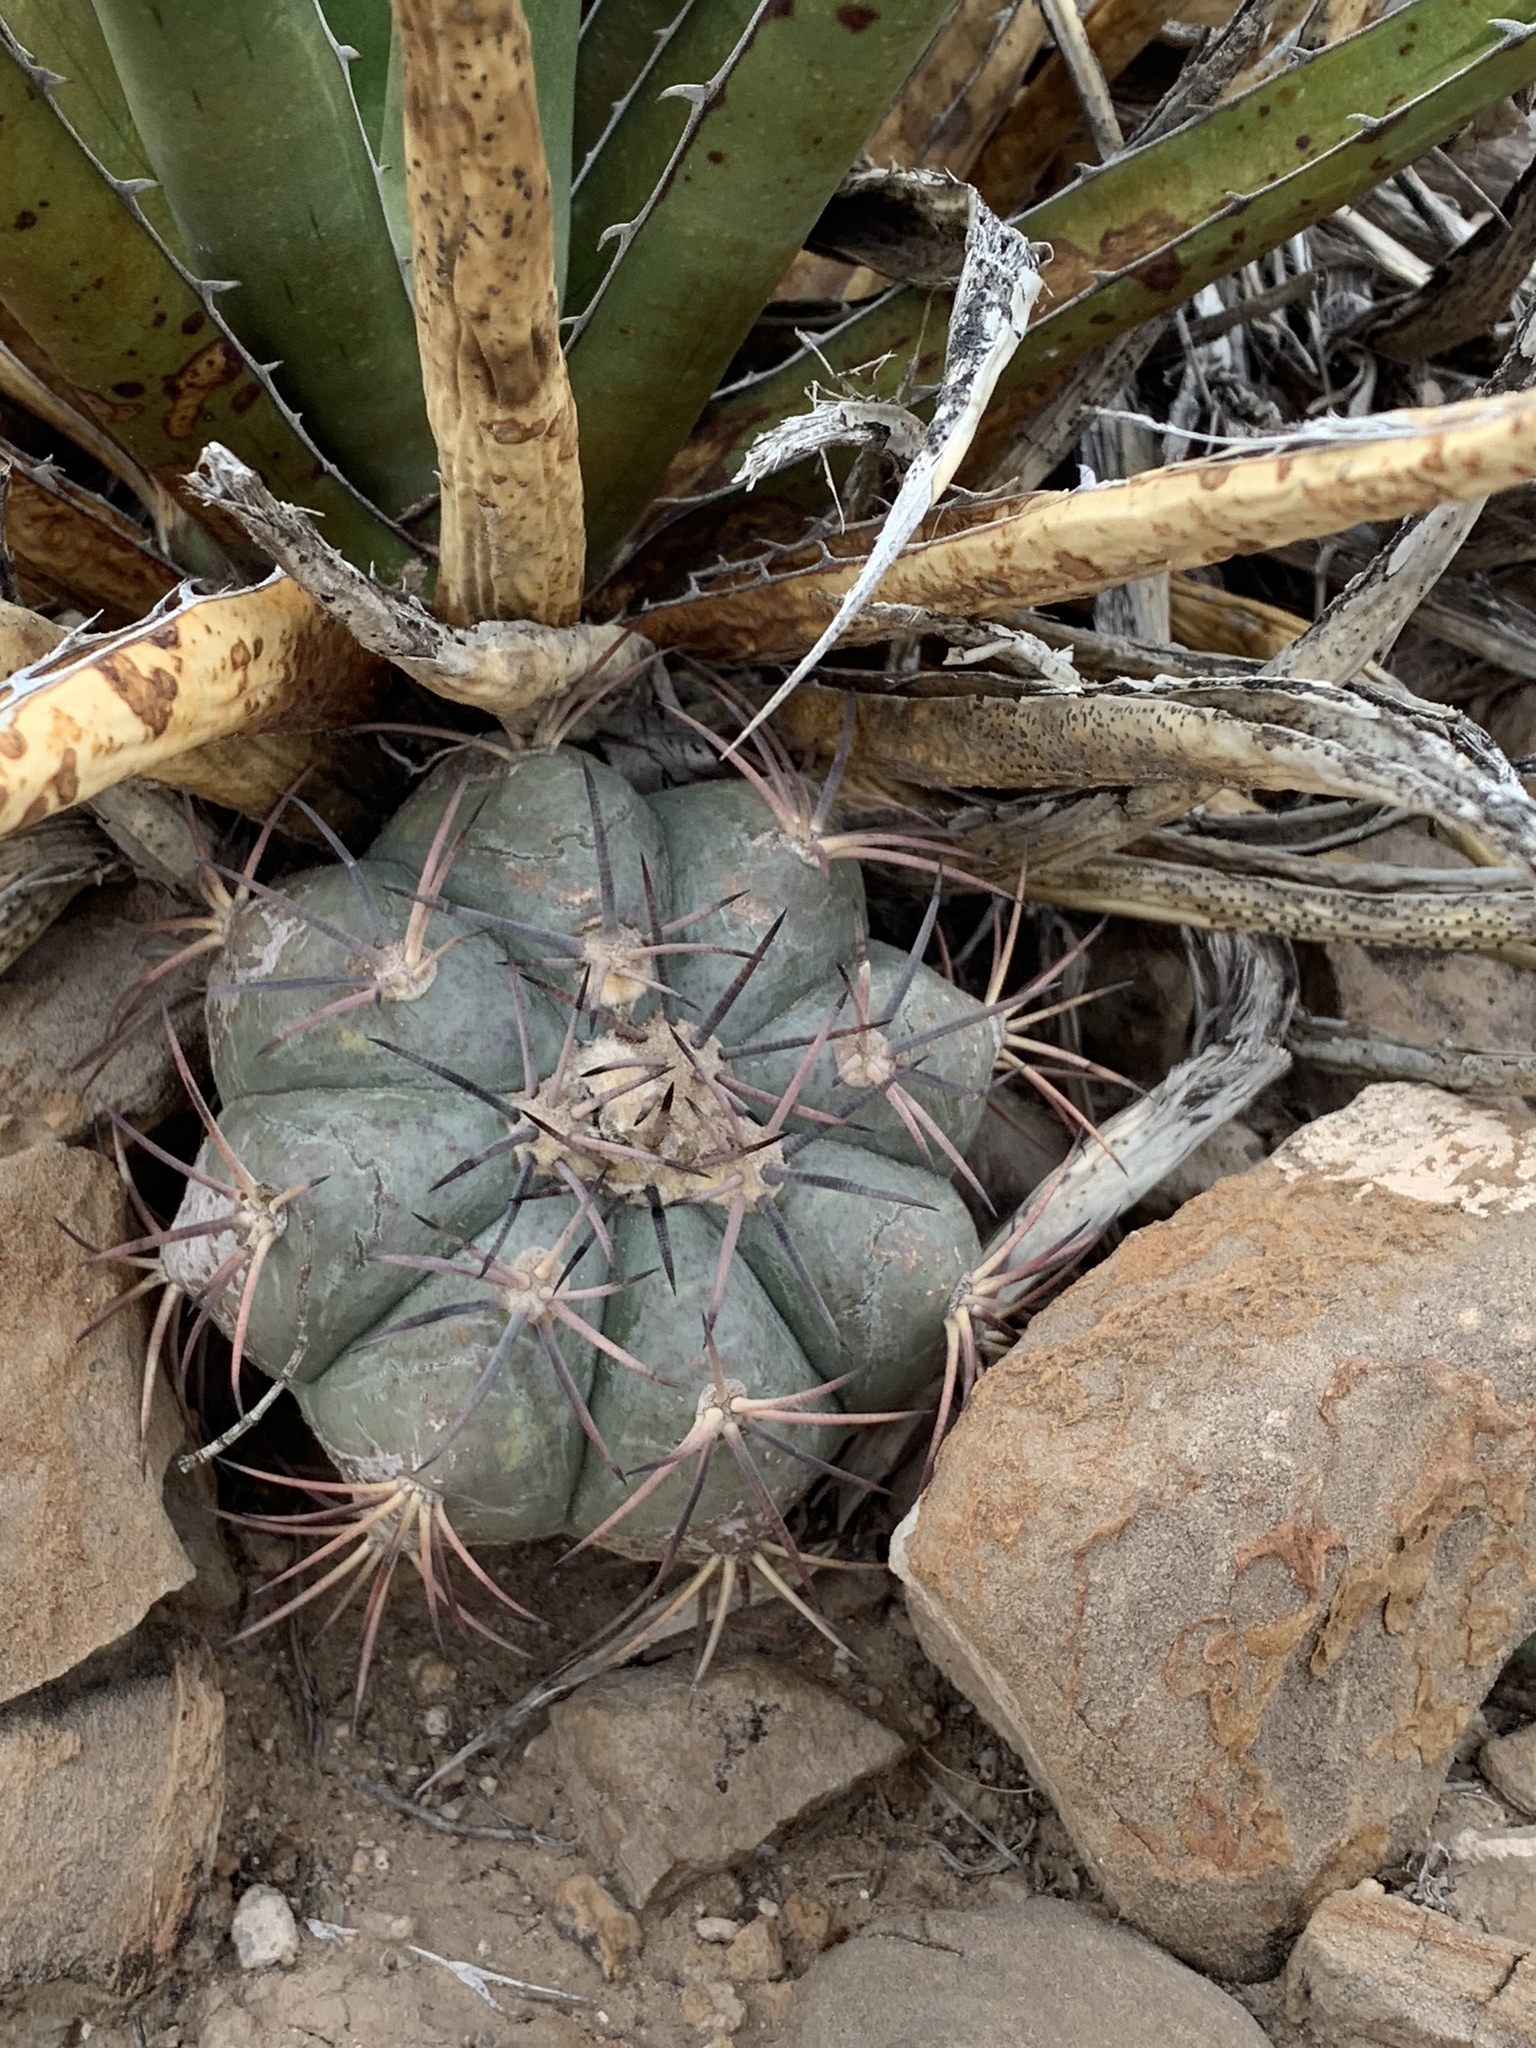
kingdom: Plantae
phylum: Tracheophyta
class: Magnoliopsida
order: Caryophyllales
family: Cactaceae
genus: Echinocactus
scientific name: Echinocactus horizonthalonius
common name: Devilshead
